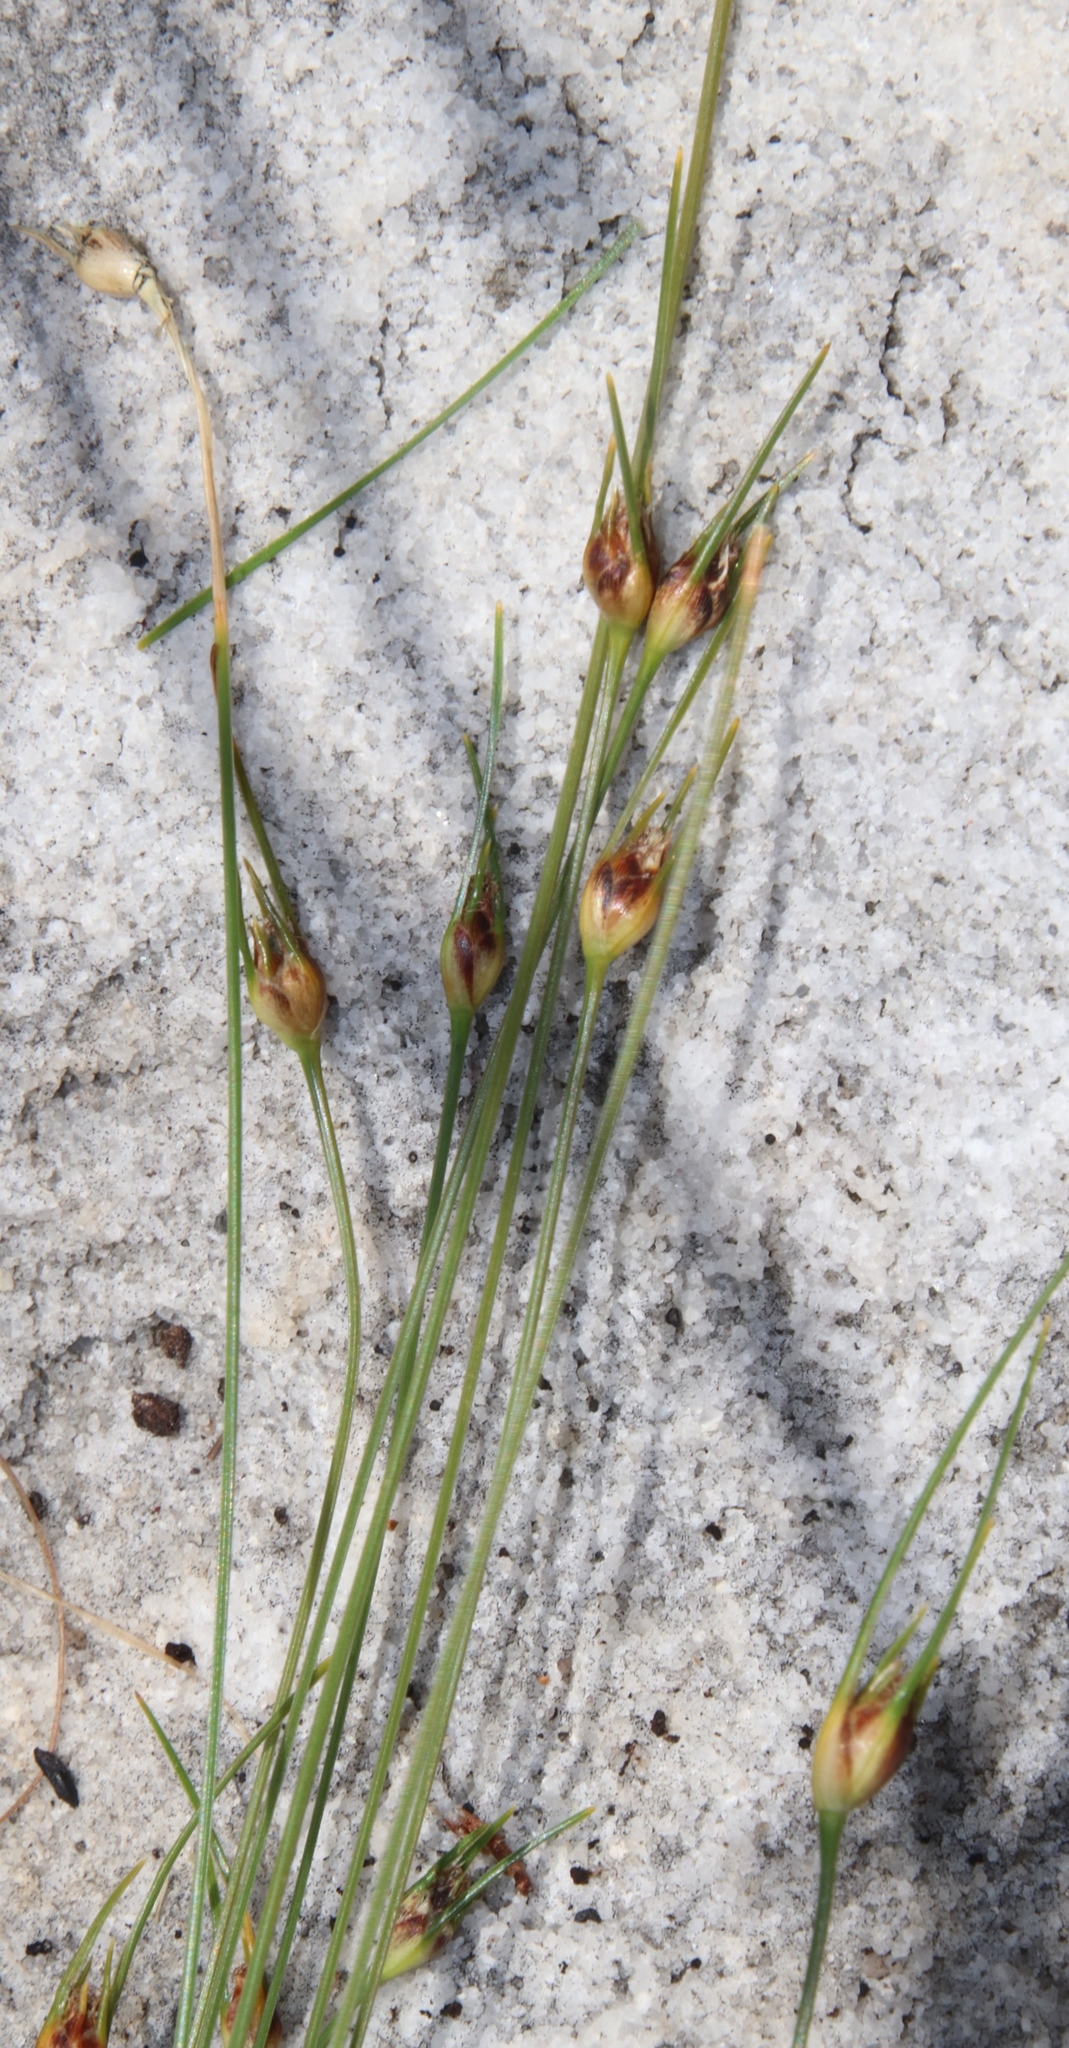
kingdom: Plantae
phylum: Tracheophyta
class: Liliopsida
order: Poales
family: Cyperaceae
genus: Ficinia
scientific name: Ficinia capitella
